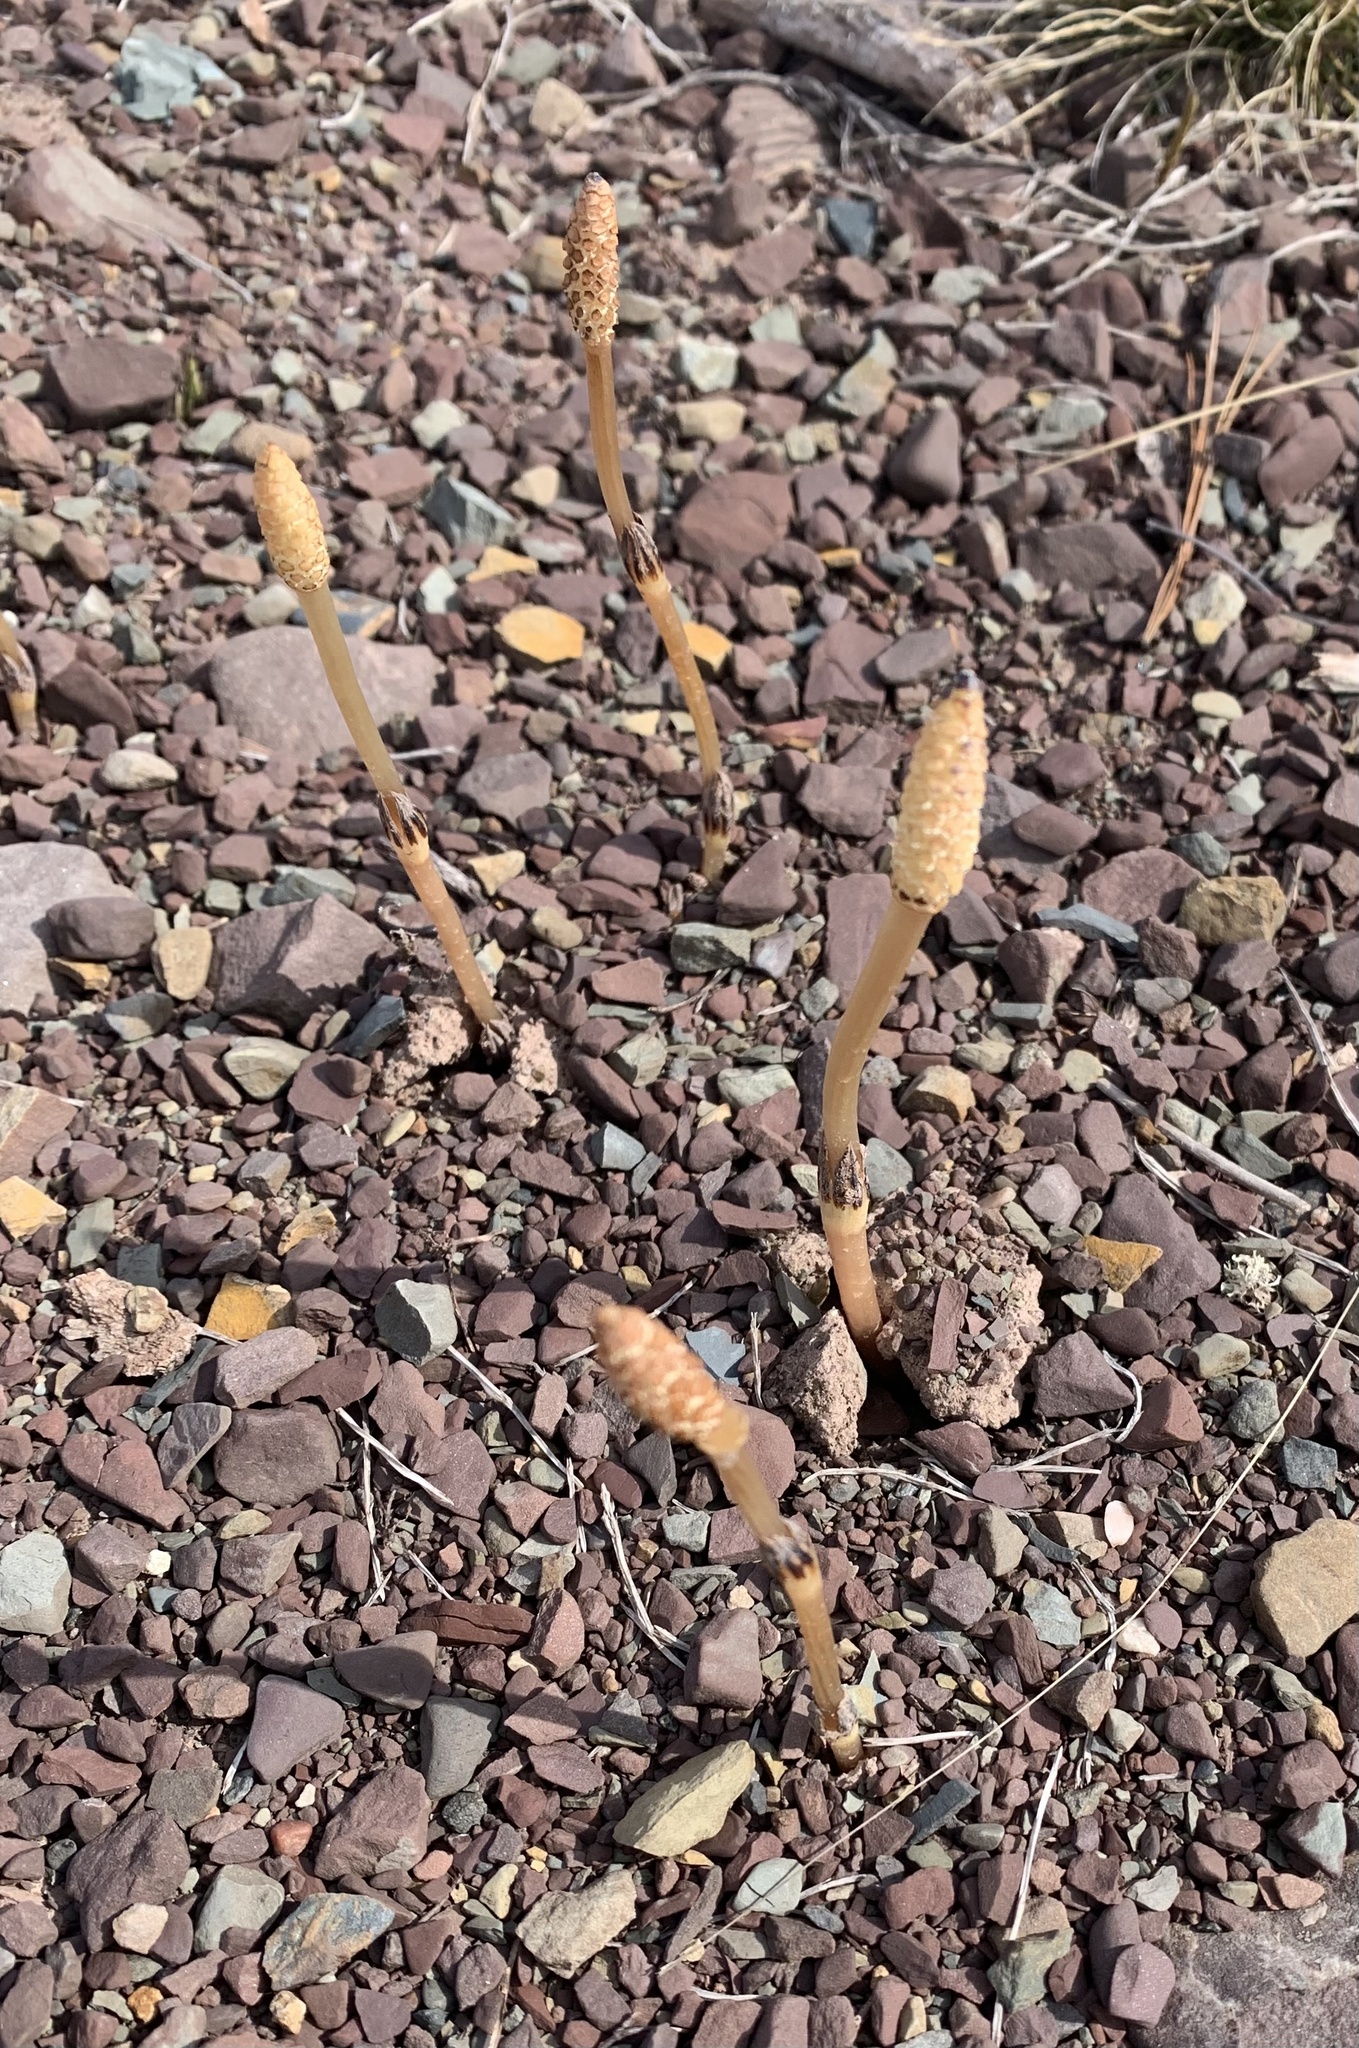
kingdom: Plantae
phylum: Tracheophyta
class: Polypodiopsida
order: Equisetales
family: Equisetaceae
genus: Equisetum
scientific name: Equisetum arvense
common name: Field horsetail
